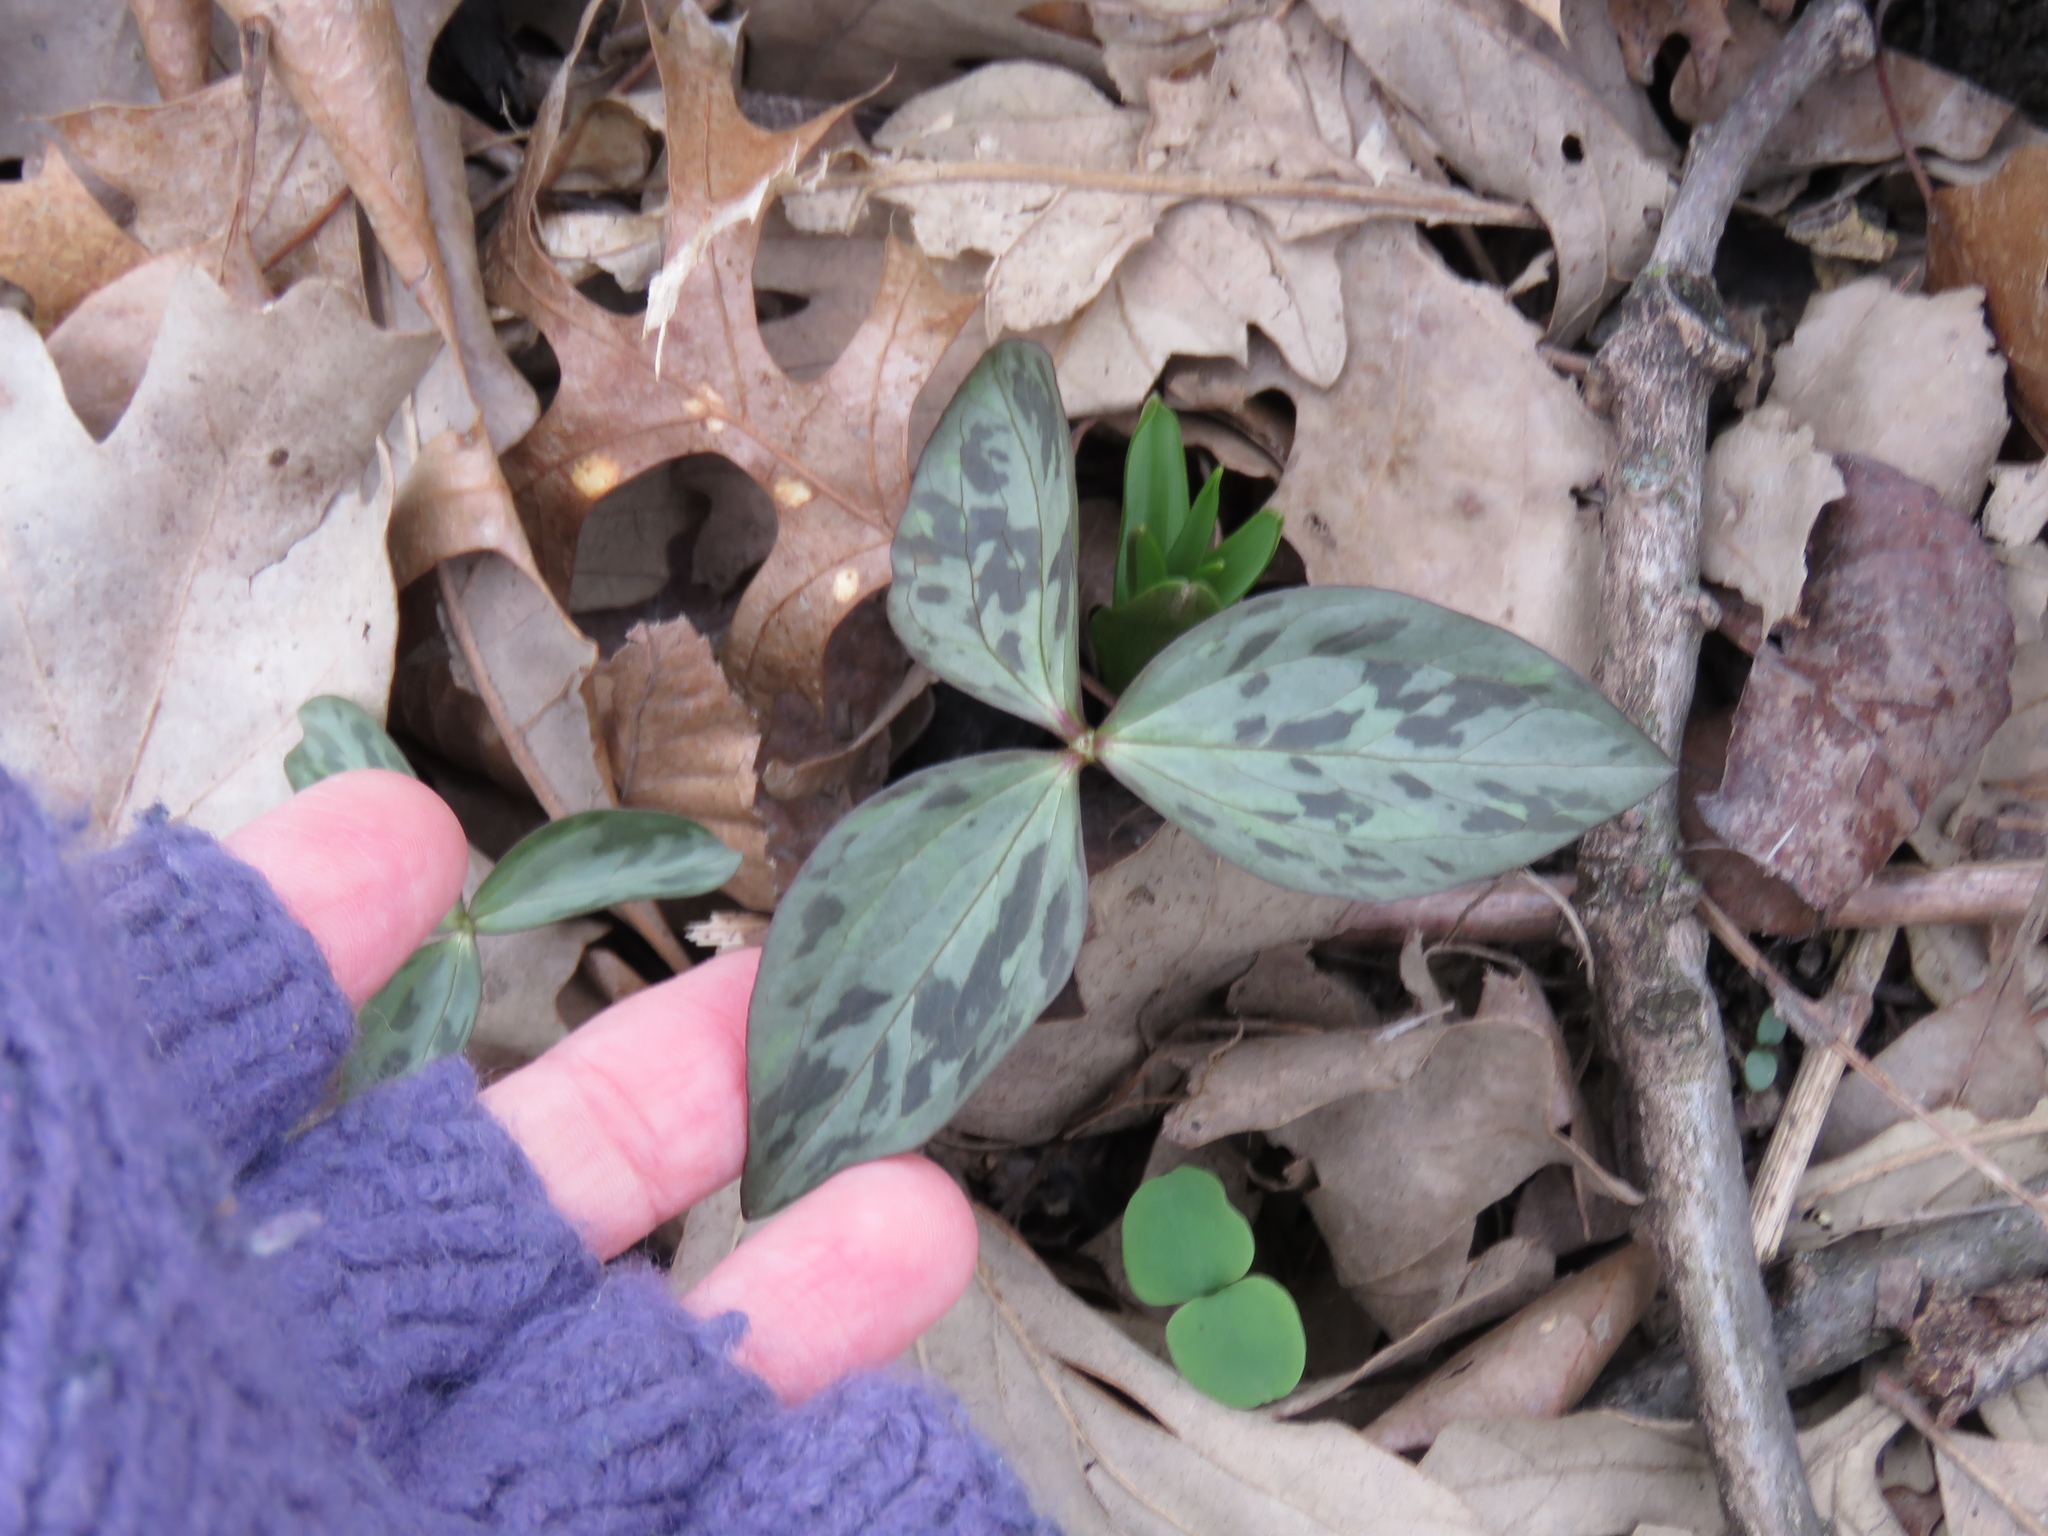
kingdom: Plantae
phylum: Tracheophyta
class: Liliopsida
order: Liliales
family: Melanthiaceae
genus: Trillium
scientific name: Trillium recurvatum
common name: Bloody butcher
